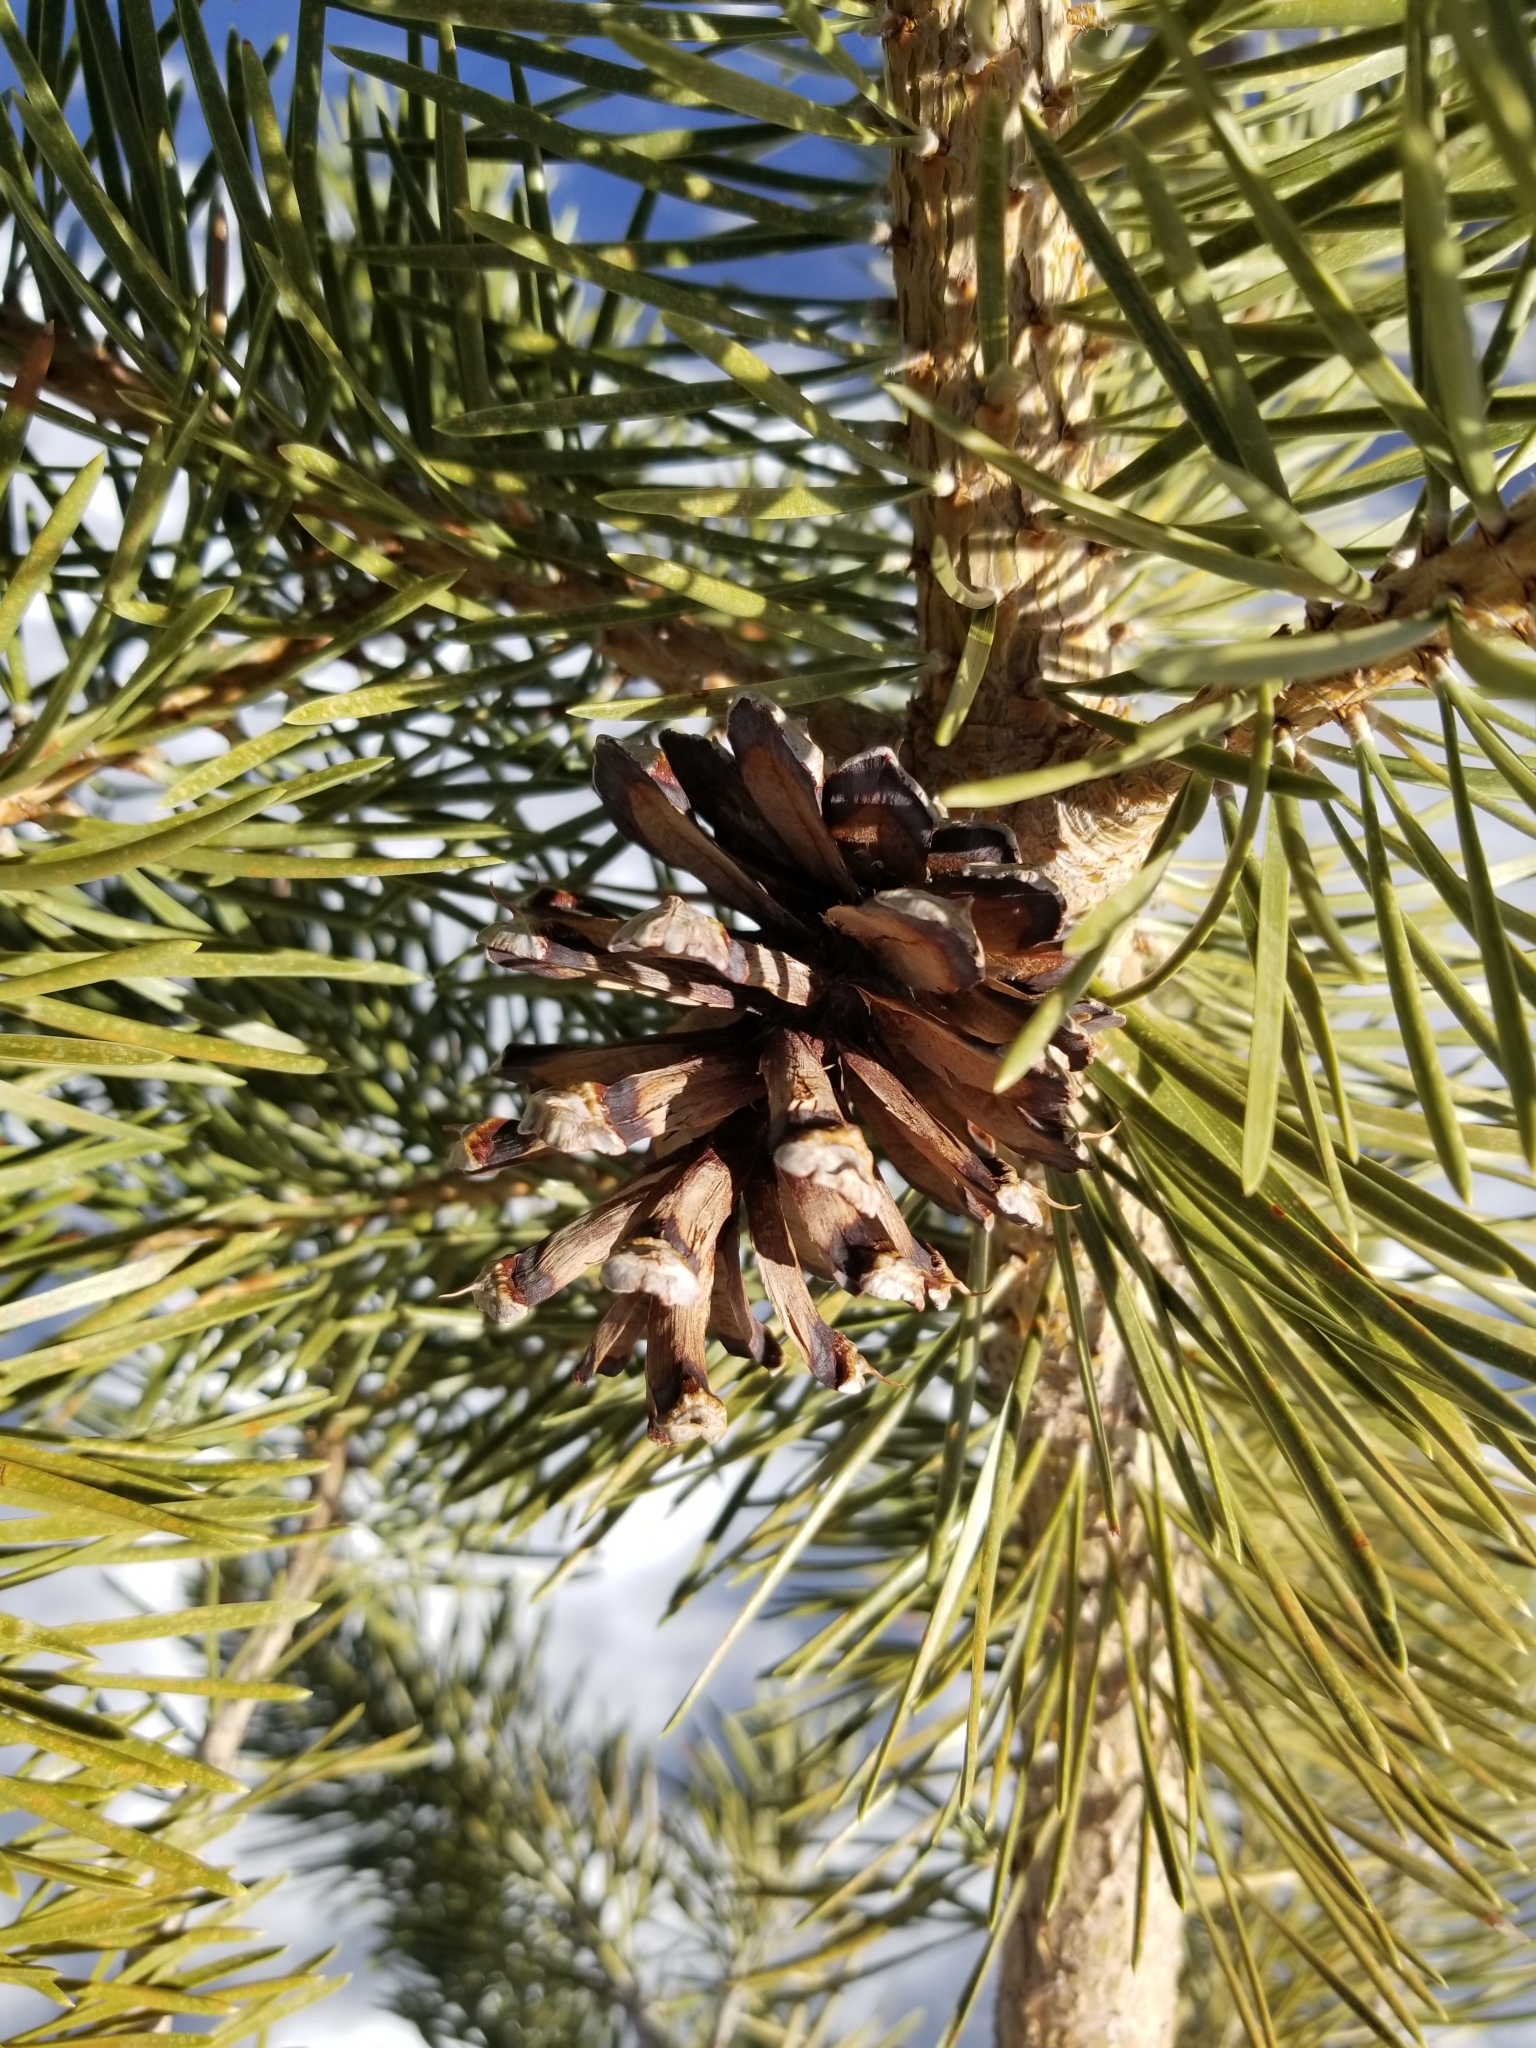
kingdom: Plantae
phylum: Tracheophyta
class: Pinopsida
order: Pinales
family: Pinaceae
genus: Pinus
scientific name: Pinus contorta
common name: Lodgepole pine
